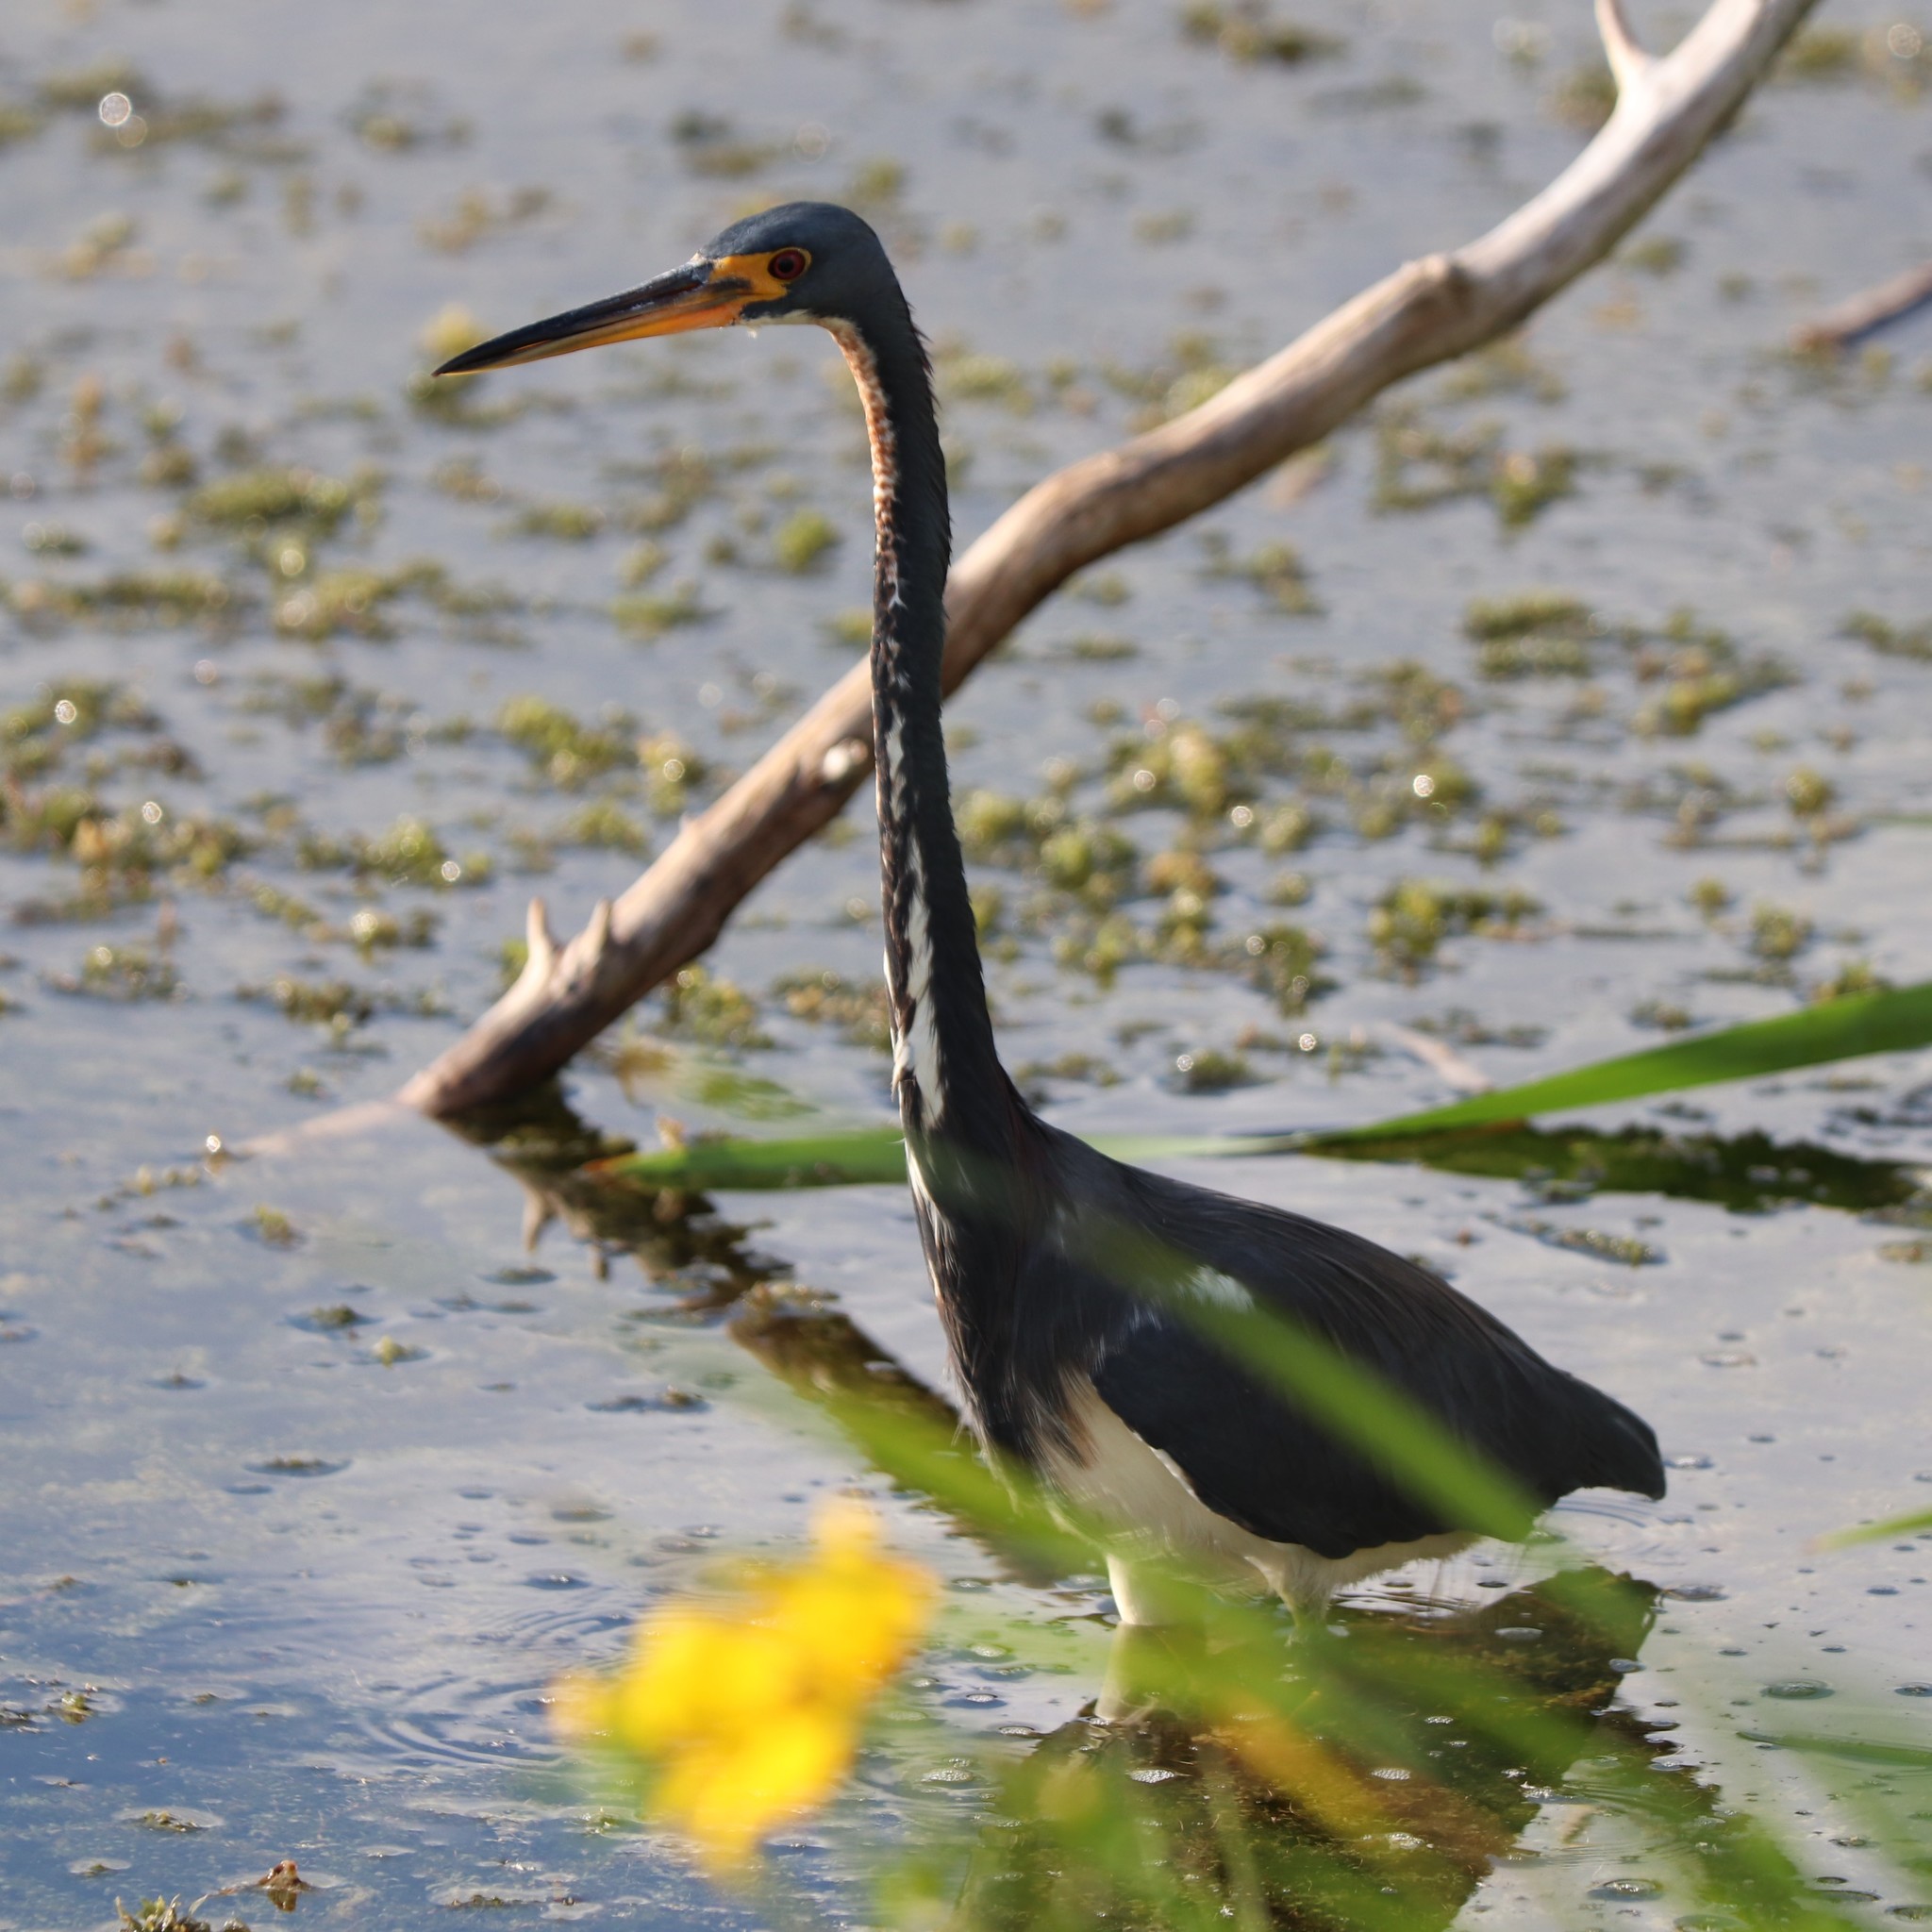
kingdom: Animalia
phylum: Chordata
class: Aves
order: Pelecaniformes
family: Ardeidae
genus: Egretta
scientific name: Egretta tricolor
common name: Tricolored heron
